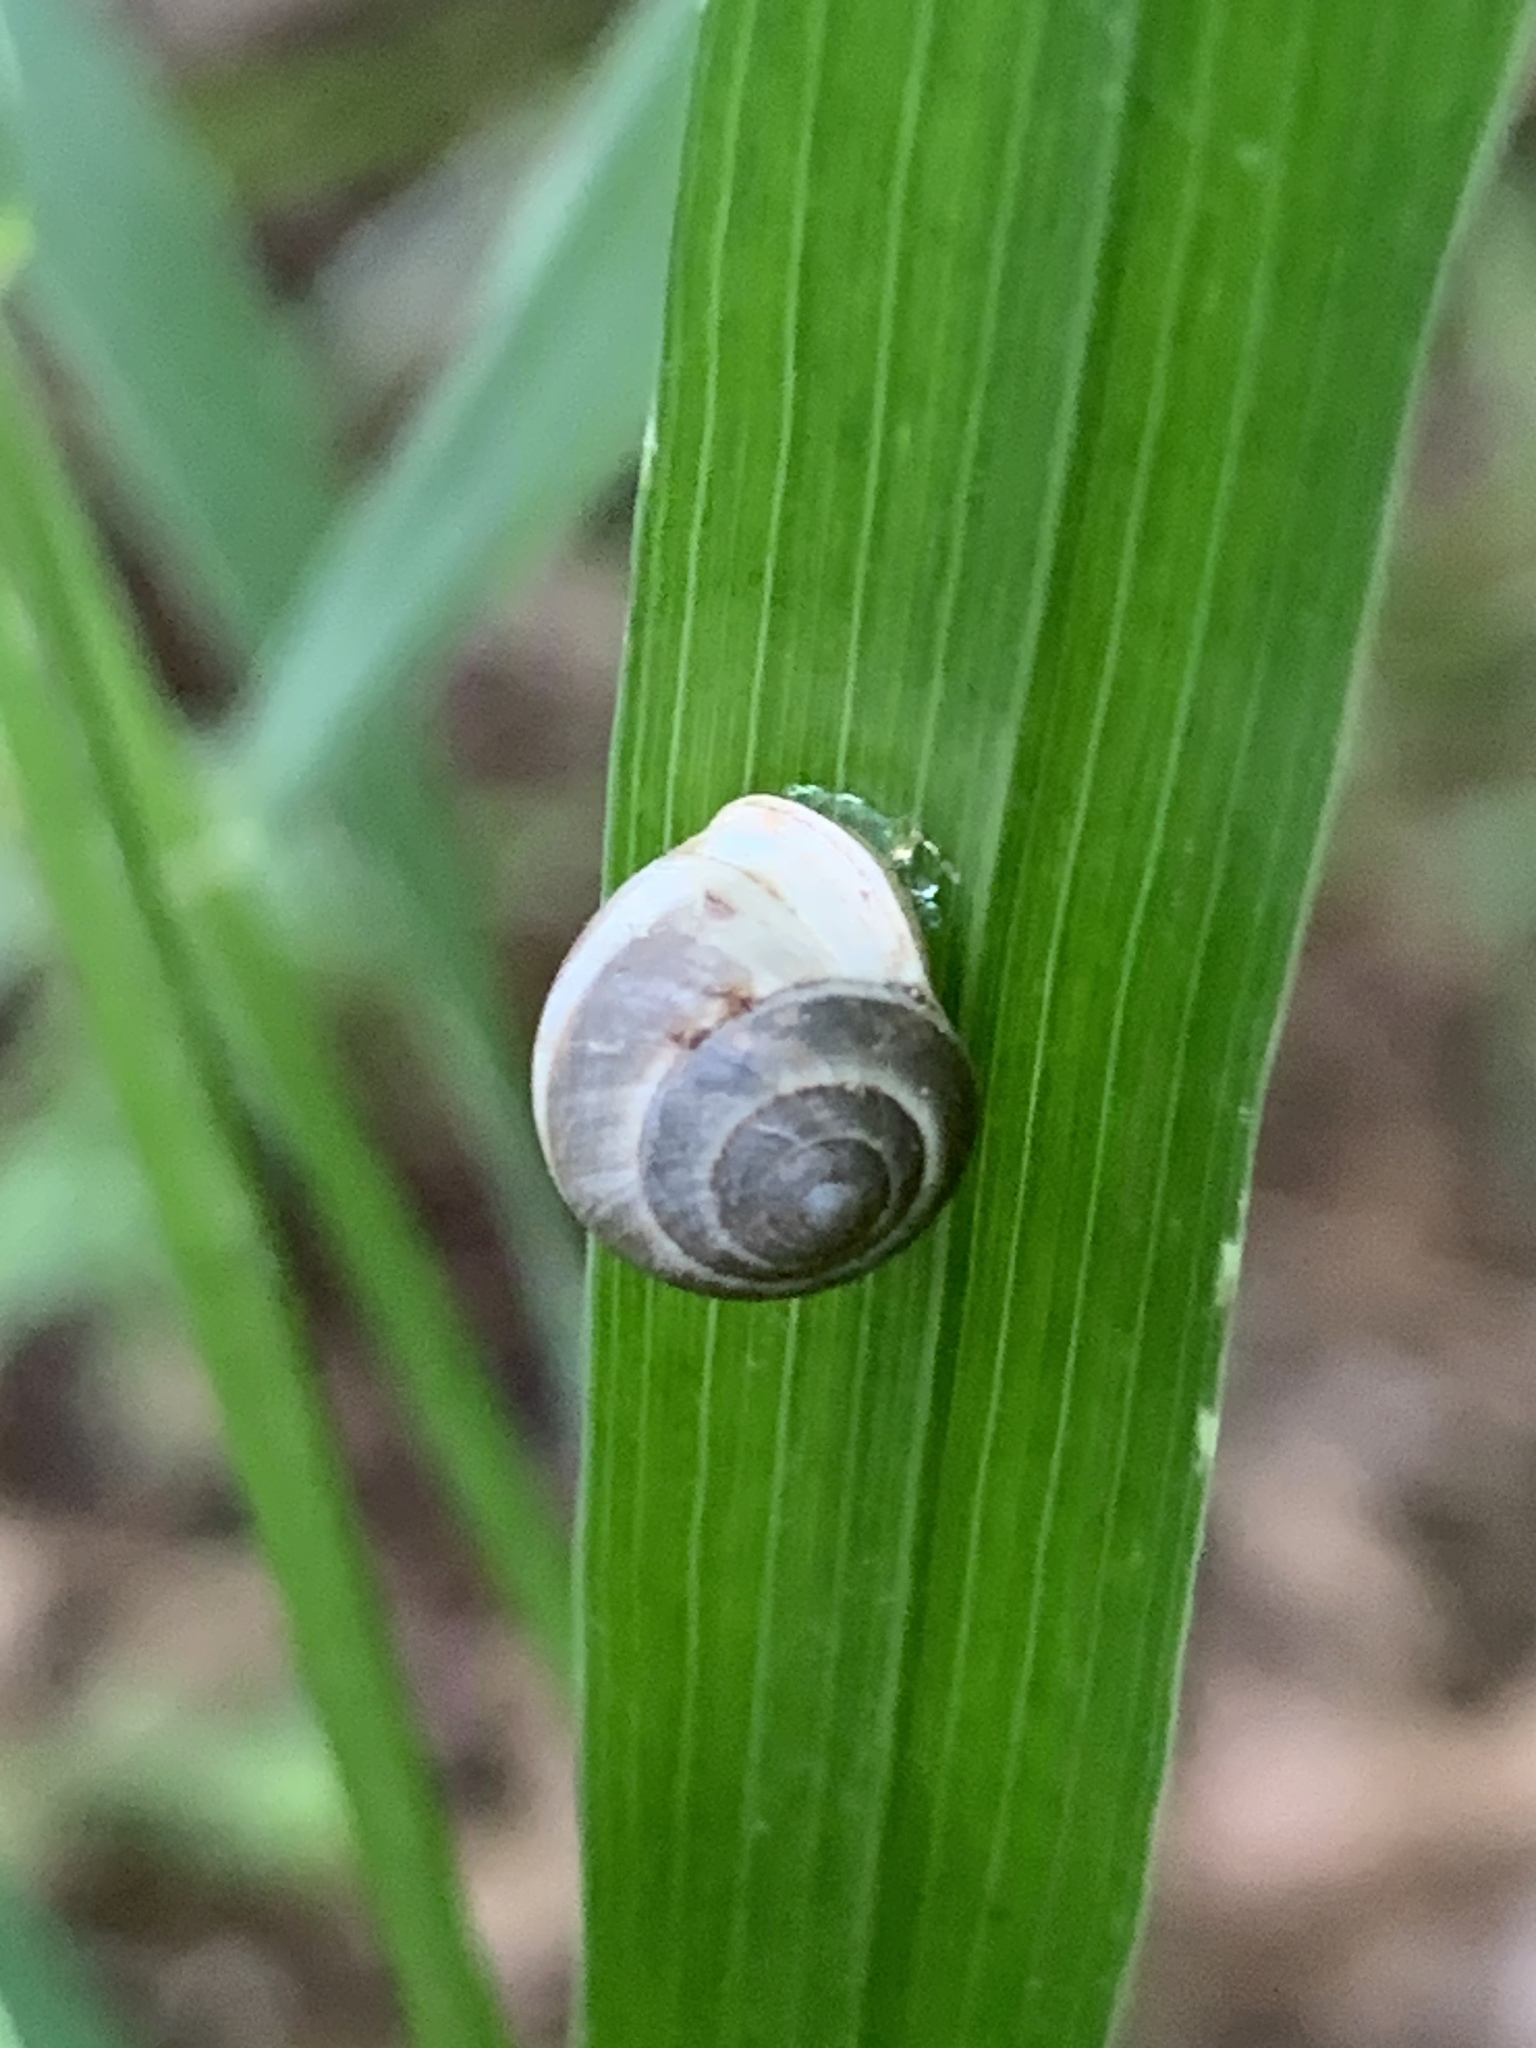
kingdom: Animalia
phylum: Mollusca
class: Gastropoda
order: Cycloneritida
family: Helicinidae
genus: Helicina
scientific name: Helicina orbiculata
